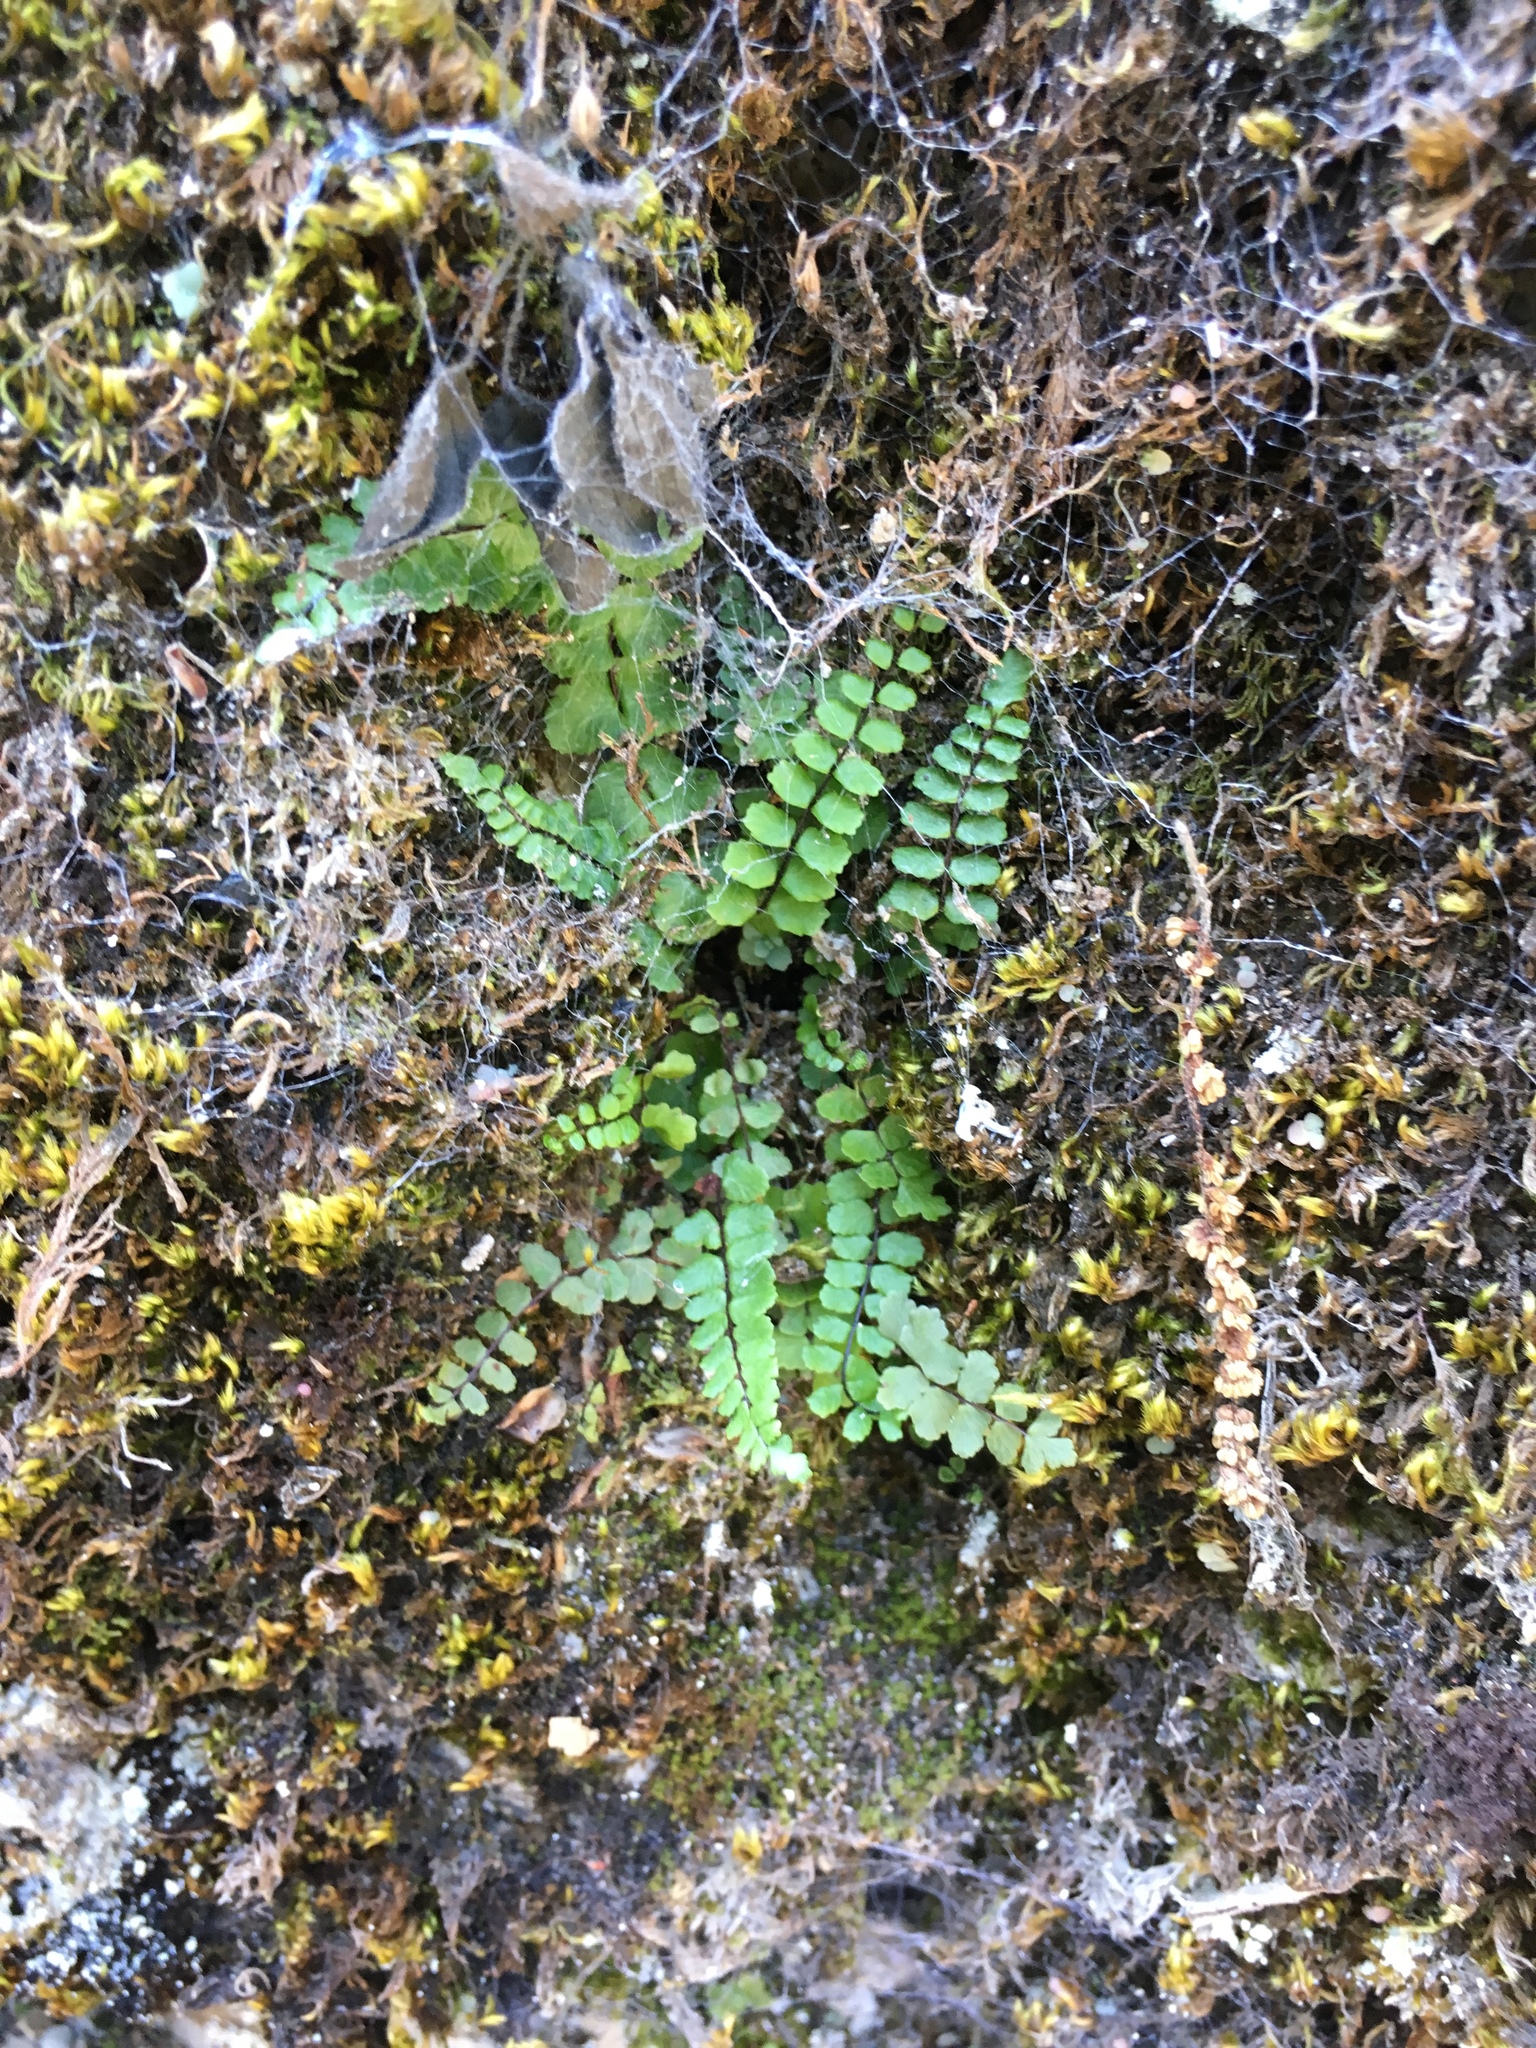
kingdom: Plantae
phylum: Tracheophyta
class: Polypodiopsida
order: Polypodiales
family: Aspleniaceae
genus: Asplenium
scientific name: Asplenium trichomanes
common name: Maidenhair spleenwort
